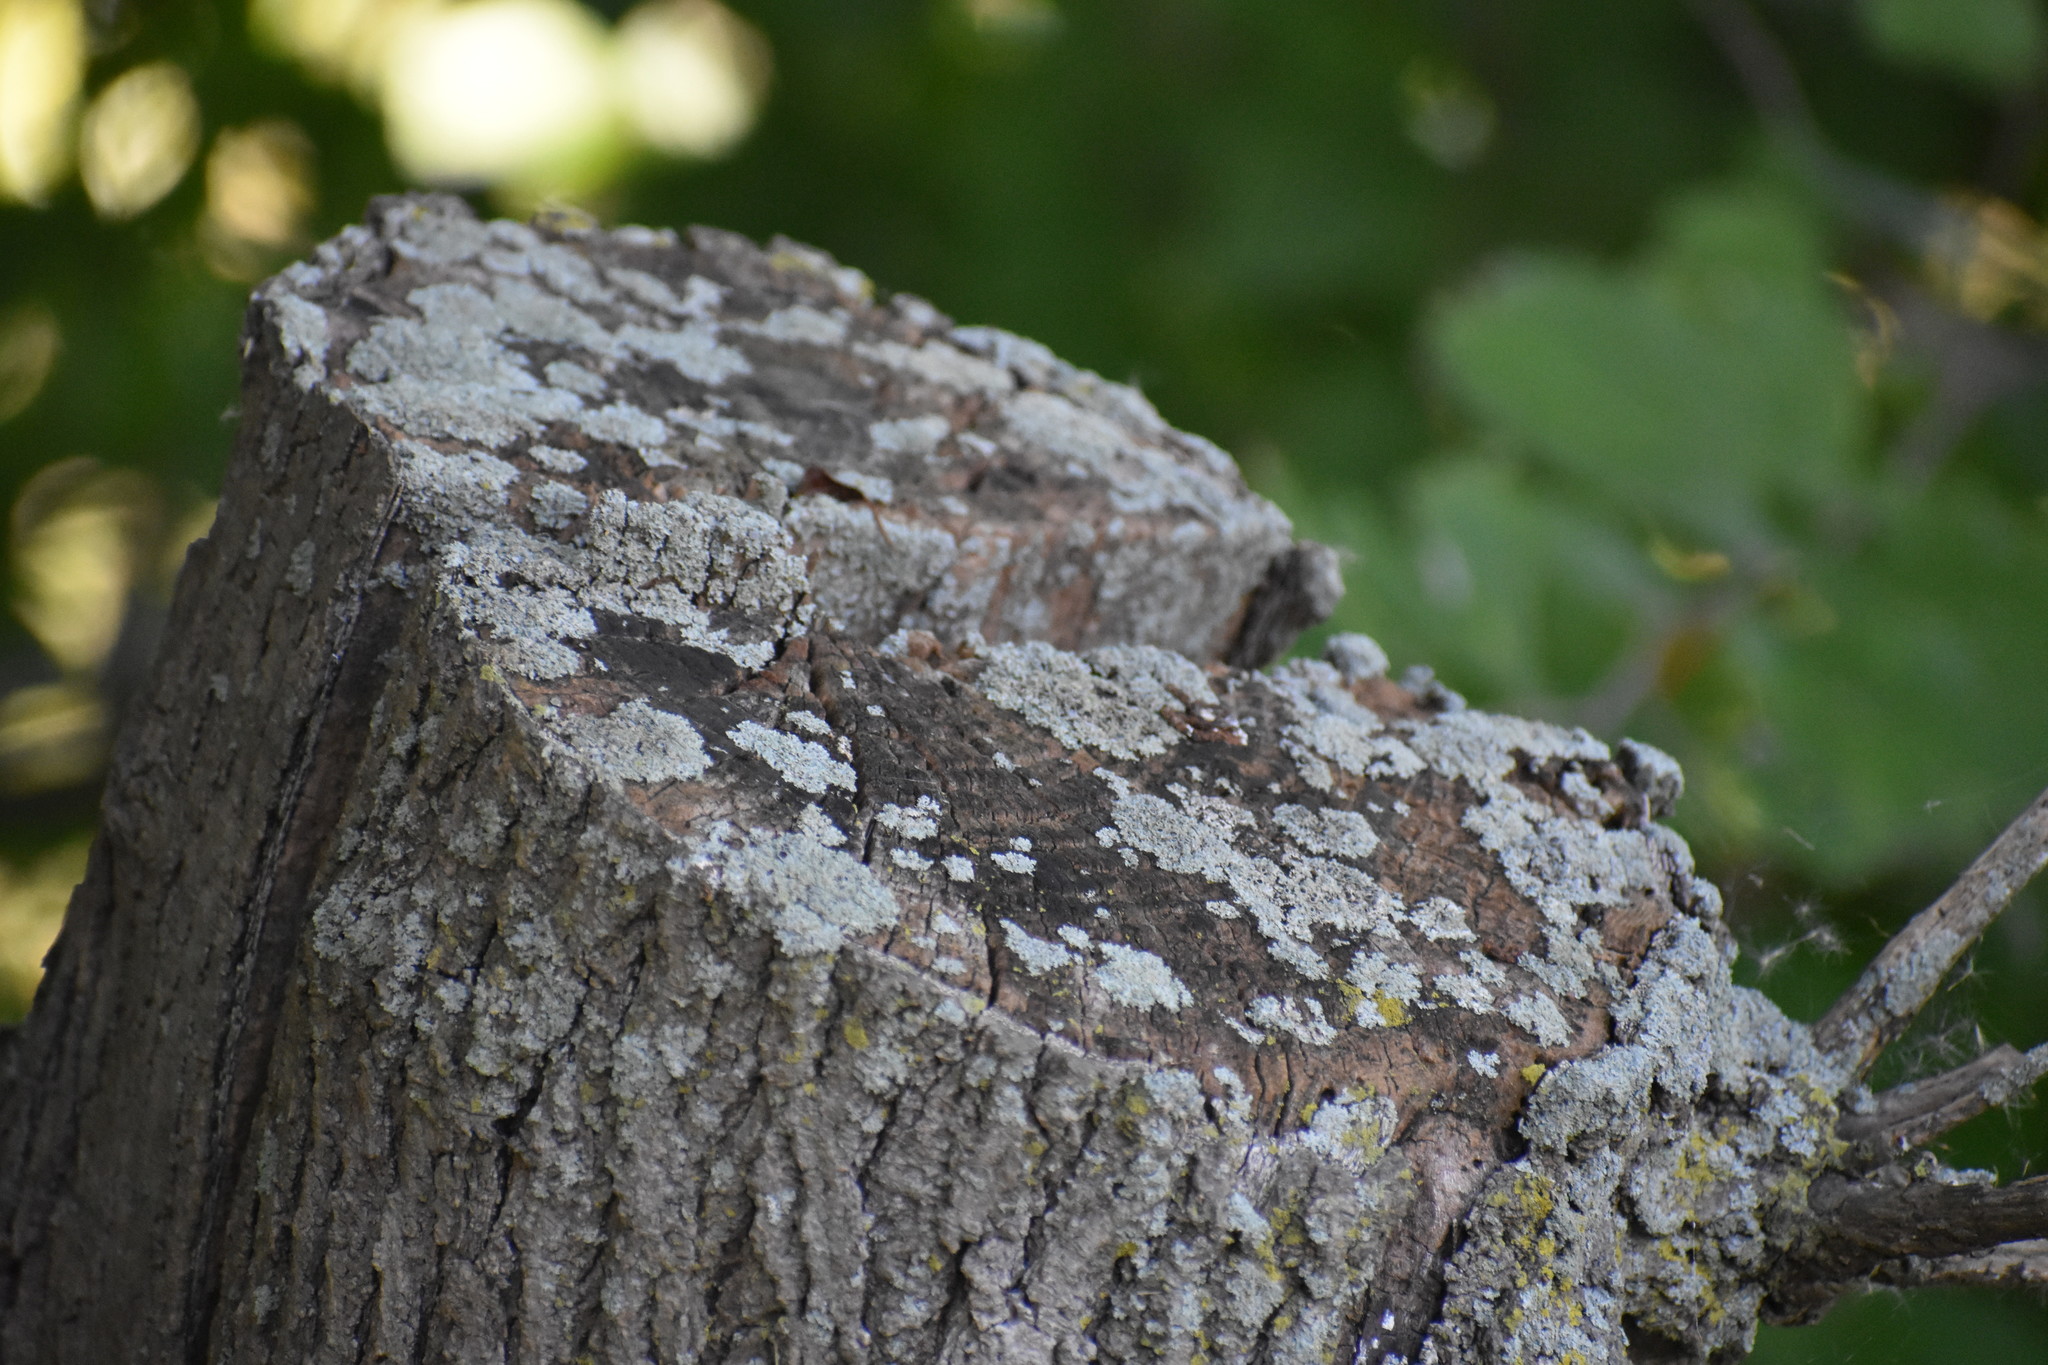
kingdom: Fungi
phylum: Ascomycota
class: Lecanoromycetes
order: Caliciales
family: Physciaceae
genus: Physcia
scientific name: Physcia millegrana
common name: Rosette lichen
